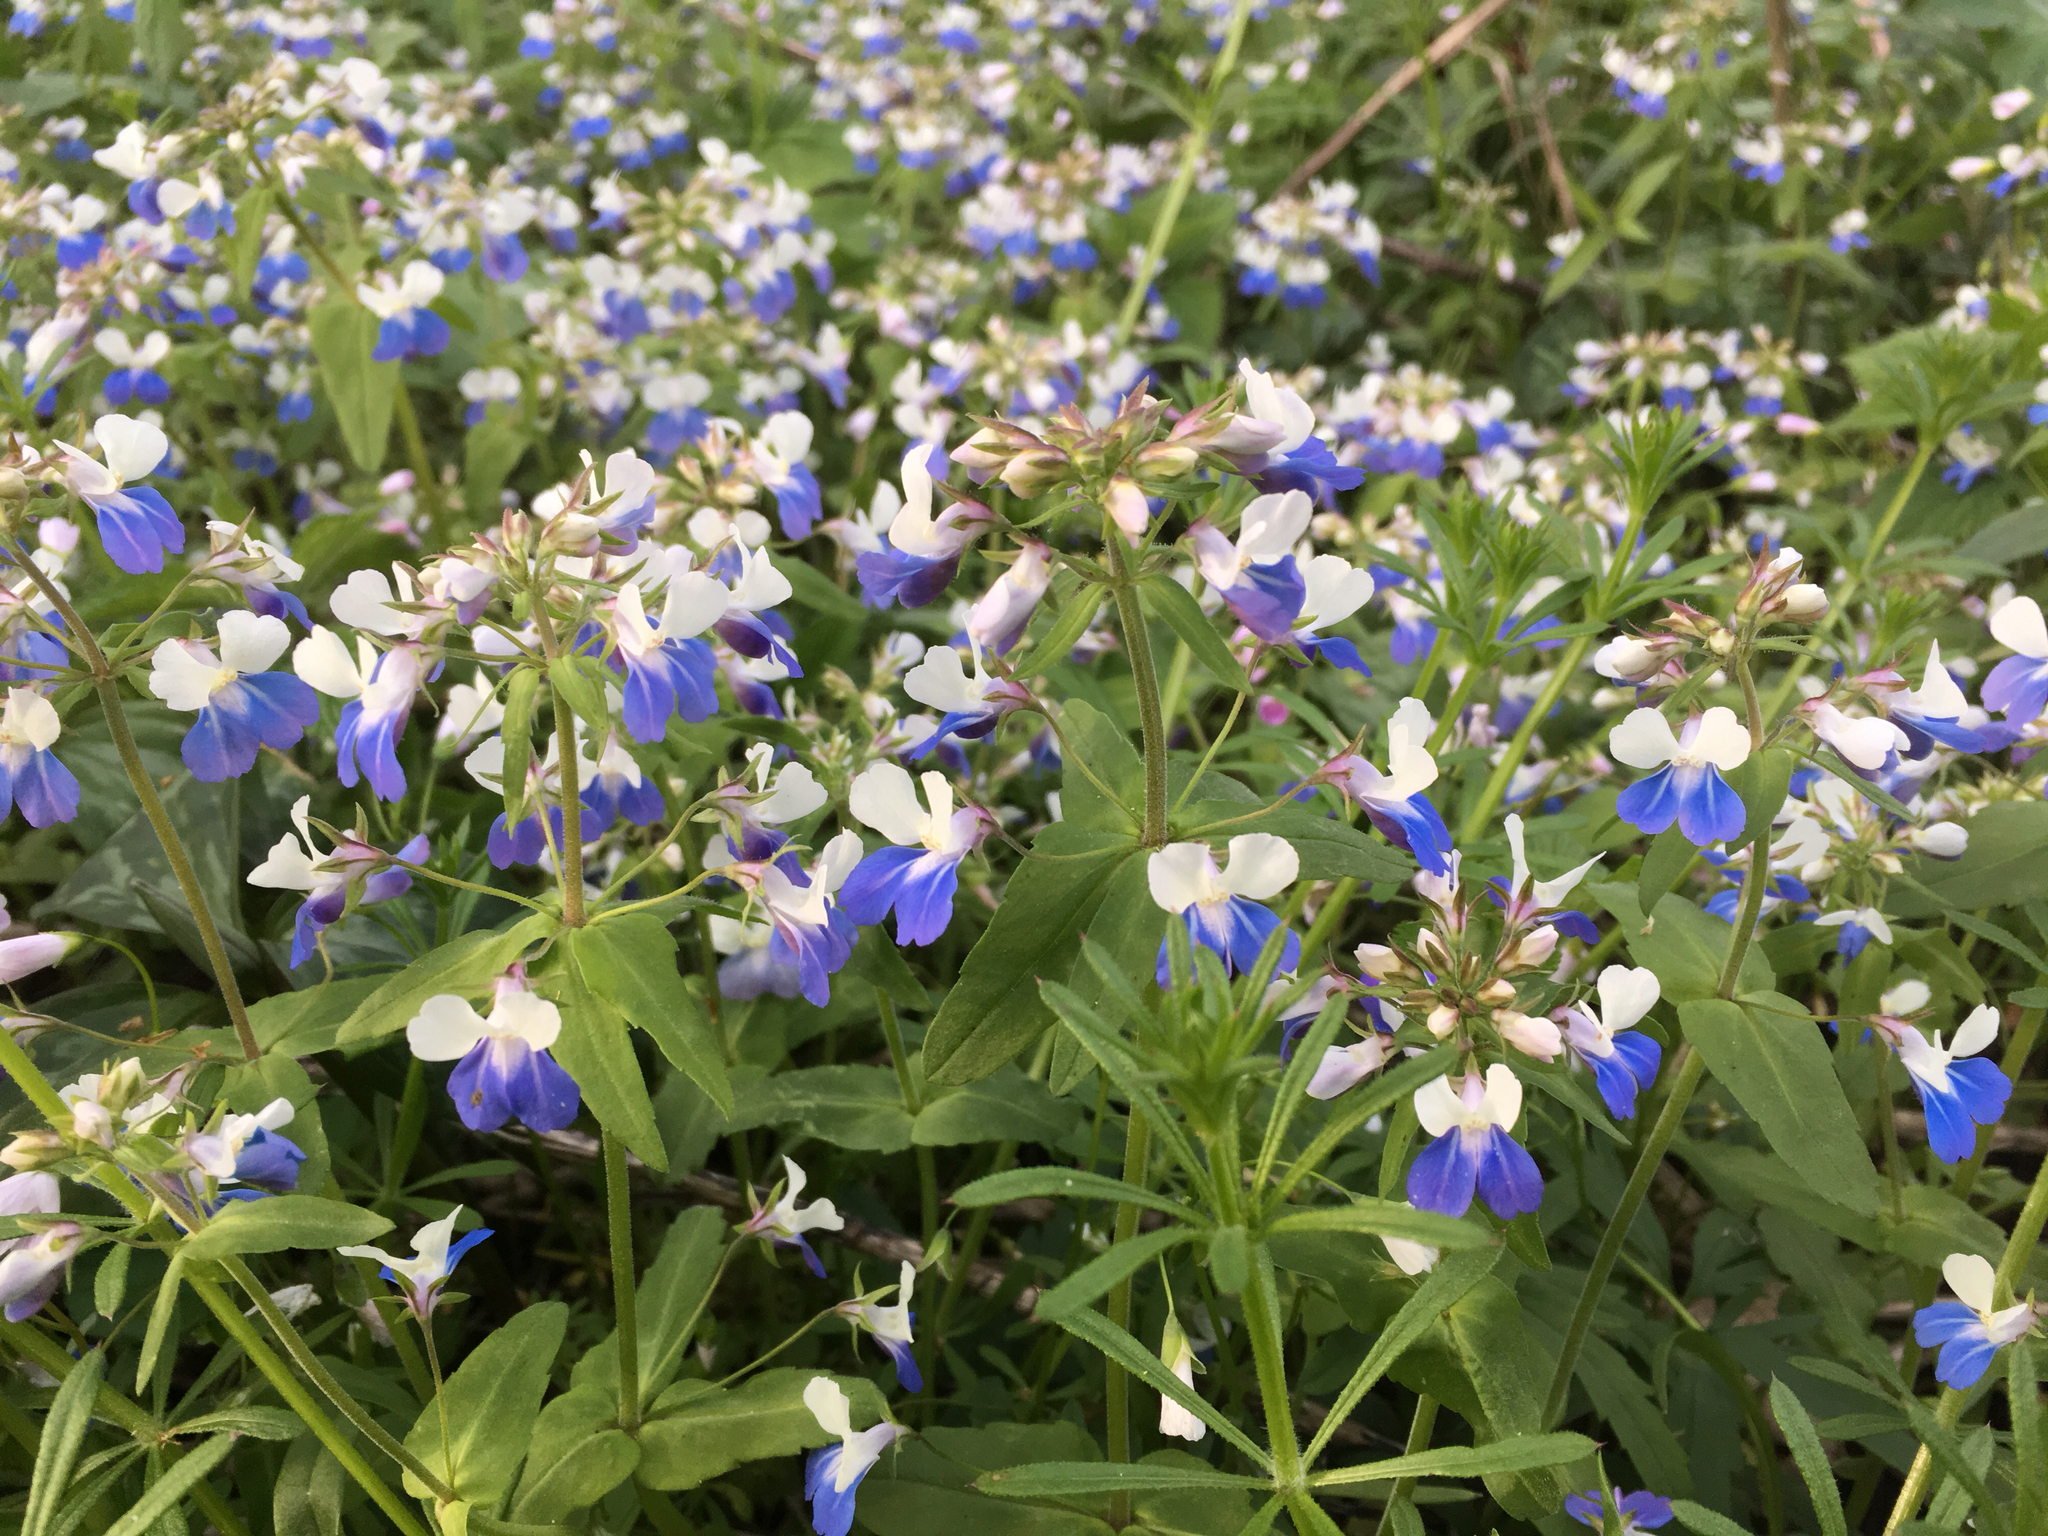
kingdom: Plantae
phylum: Tracheophyta
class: Magnoliopsida
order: Lamiales
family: Plantaginaceae
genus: Collinsia
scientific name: Collinsia verna
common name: Broad-leaved collinsia
